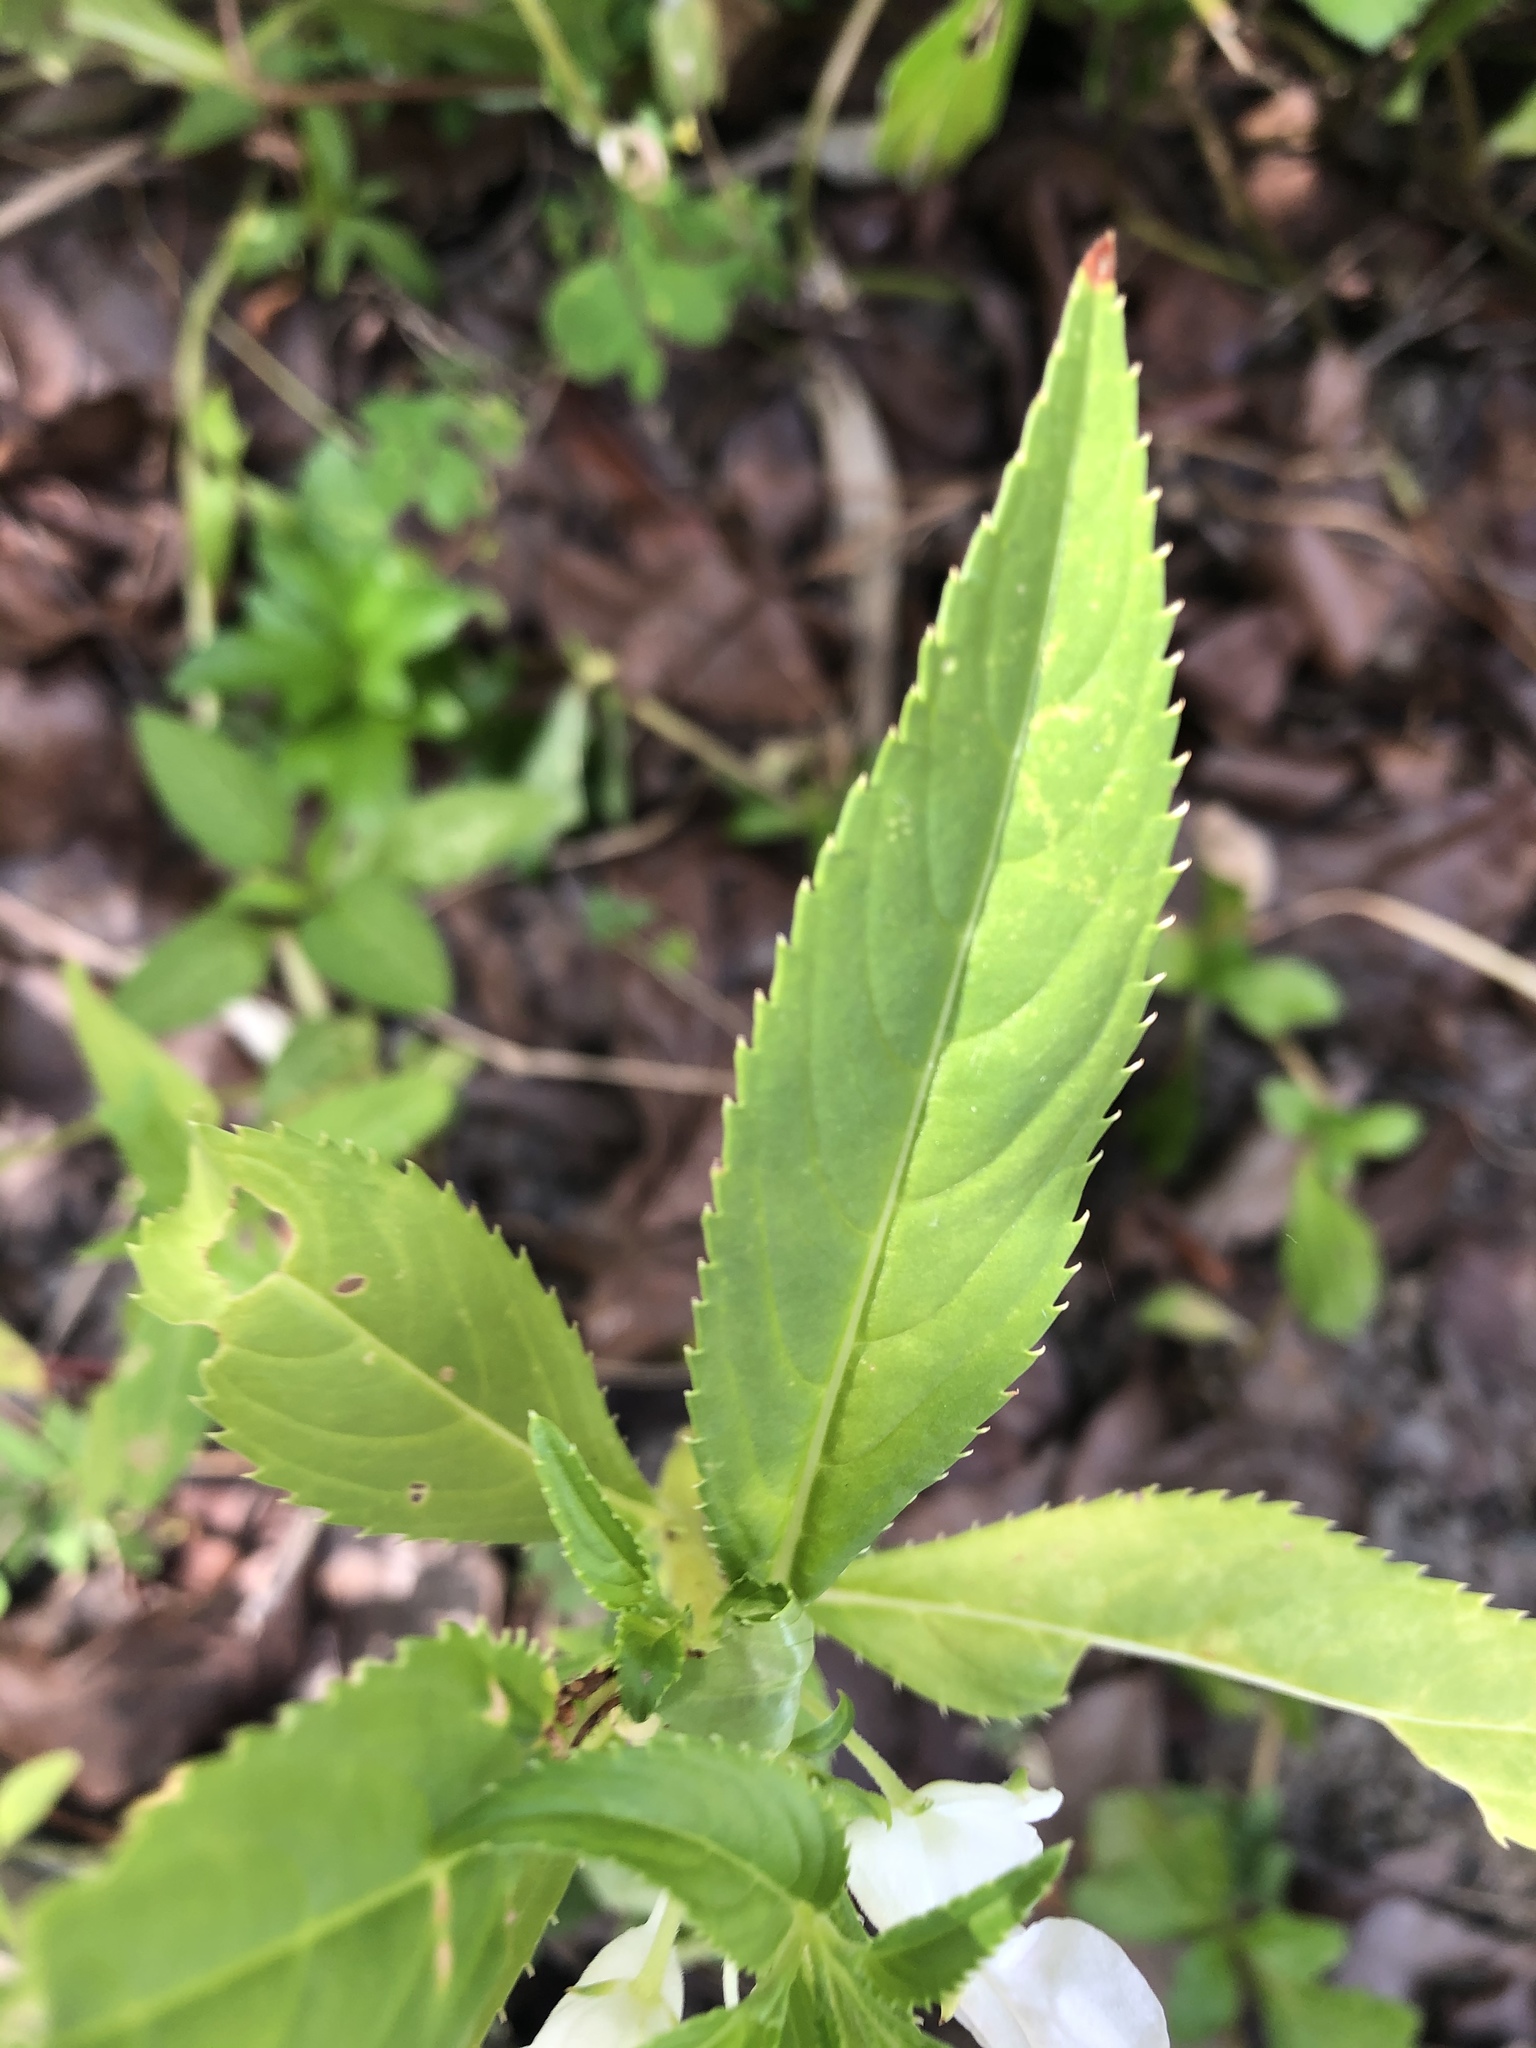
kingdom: Plantae
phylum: Tracheophyta
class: Magnoliopsida
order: Ericales
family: Balsaminaceae
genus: Impatiens
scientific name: Impatiens balsamina
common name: Balsam
